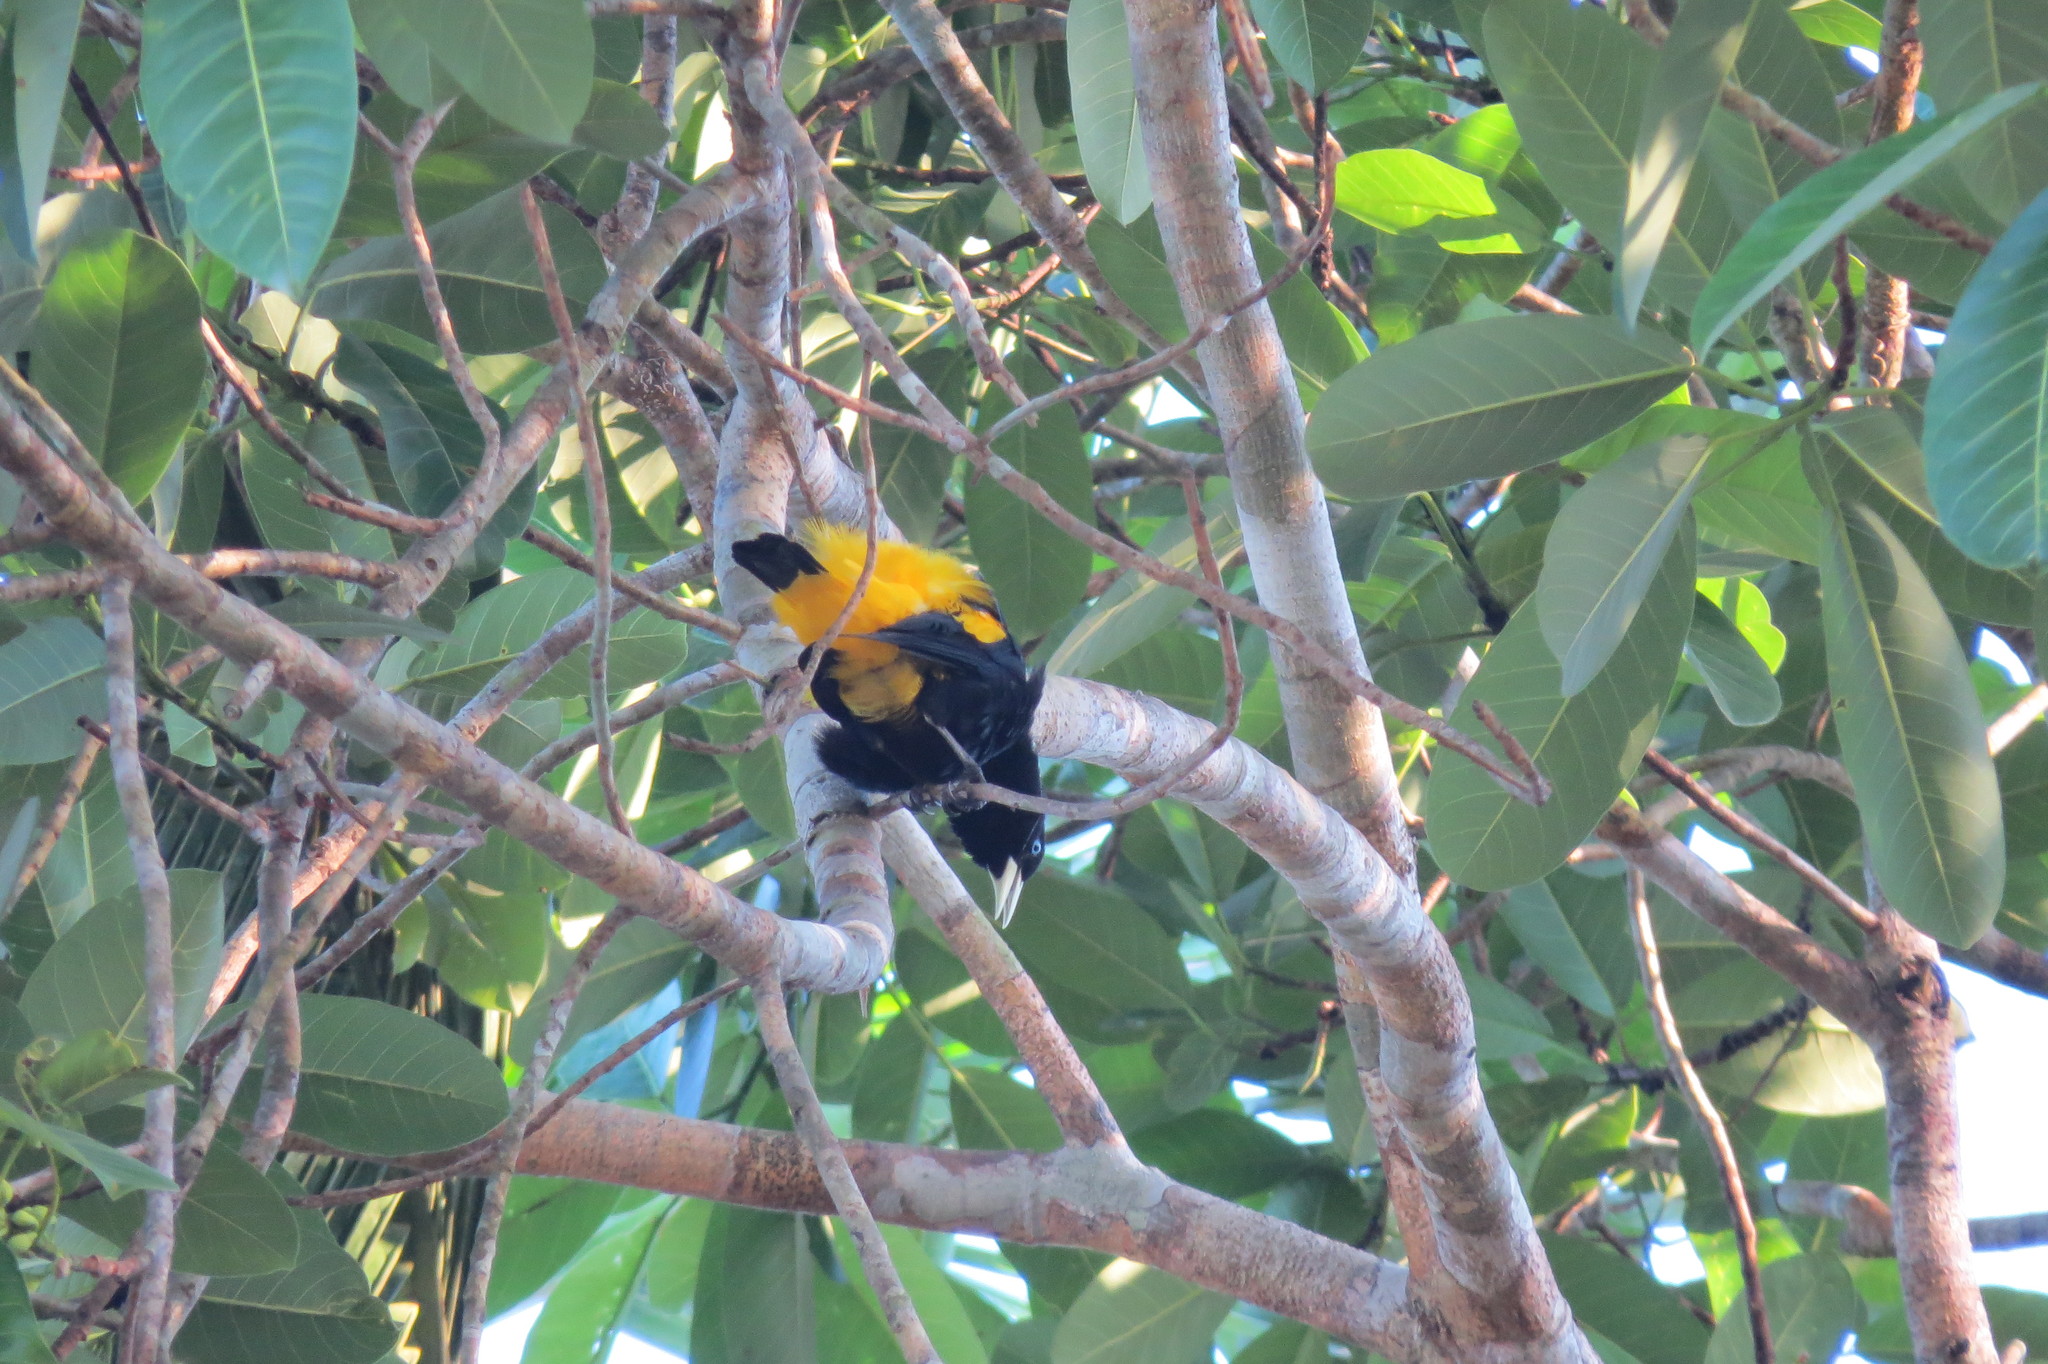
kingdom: Animalia
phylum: Chordata
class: Aves
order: Passeriformes
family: Icteridae
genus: Cacicus
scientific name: Cacicus cela
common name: Yellow-rumped cacique
